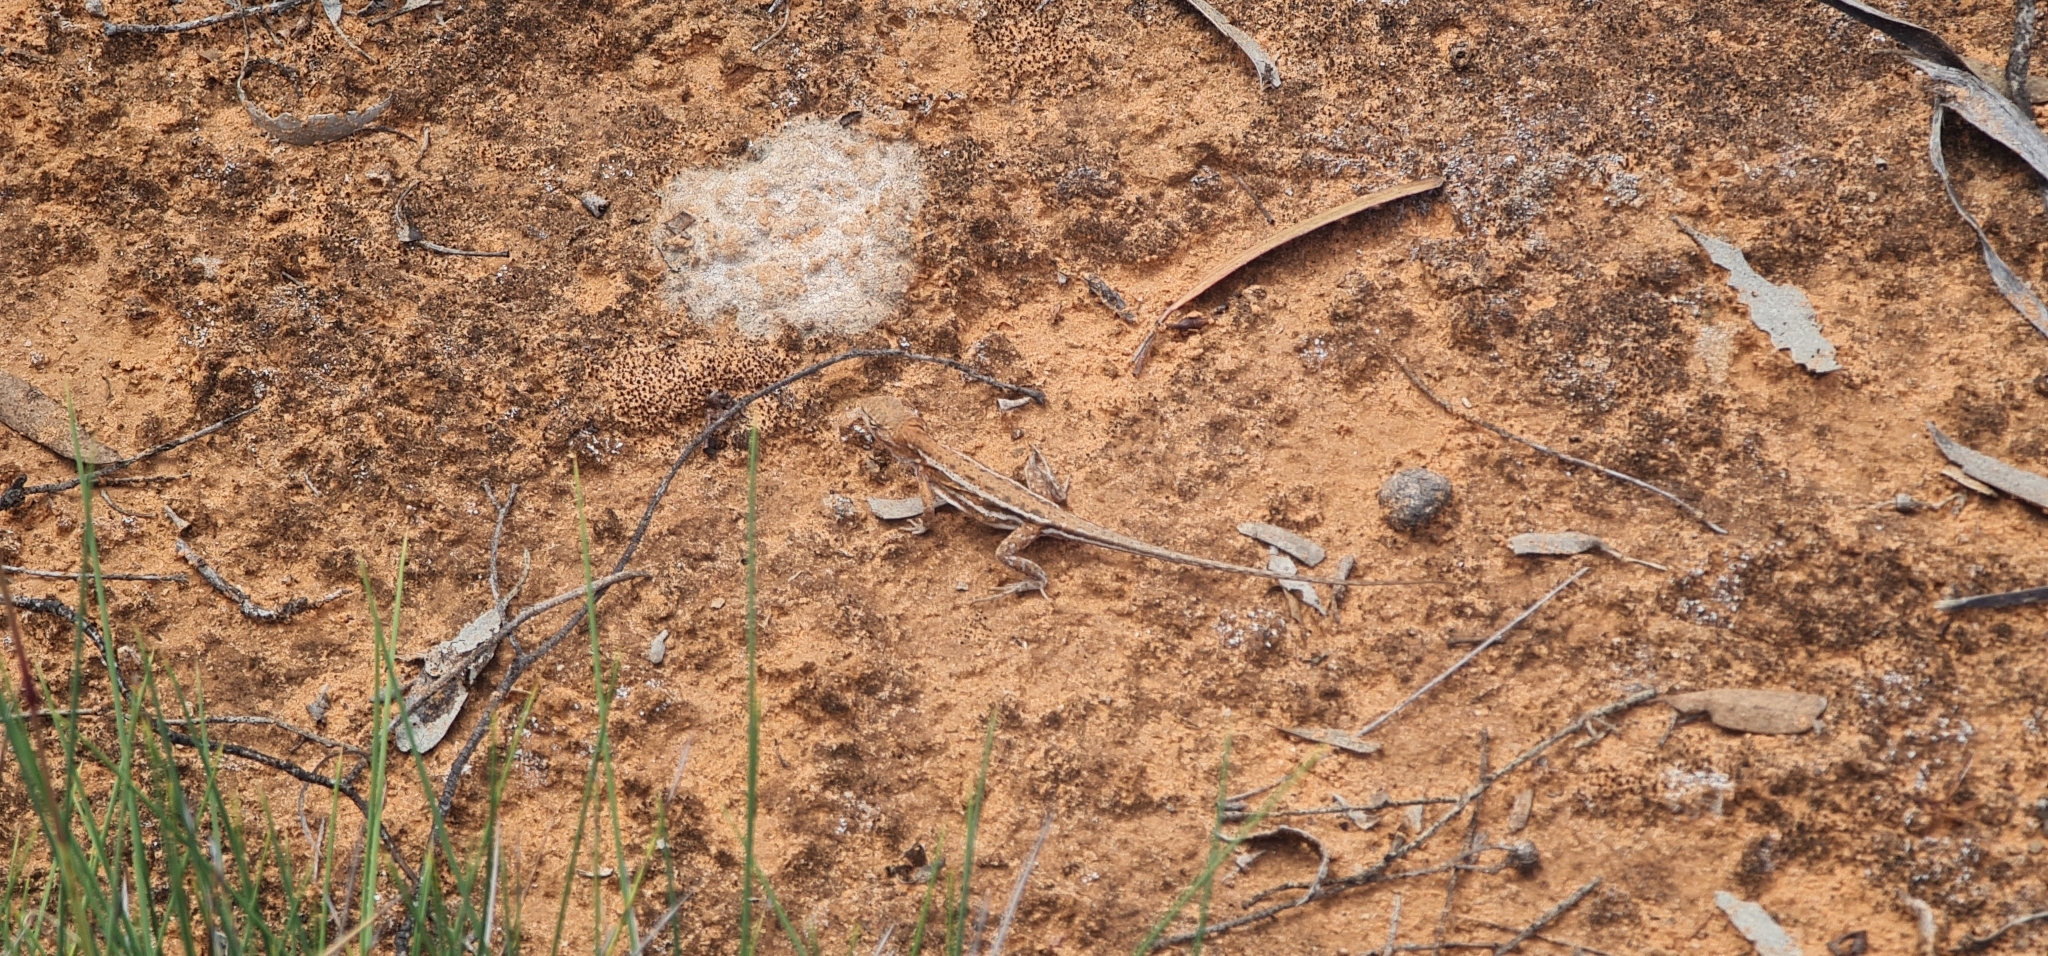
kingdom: Animalia
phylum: Chordata
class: Squamata
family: Agamidae
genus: Ctenophorus
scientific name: Ctenophorus spinodomus
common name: Eastern mallee dragon
